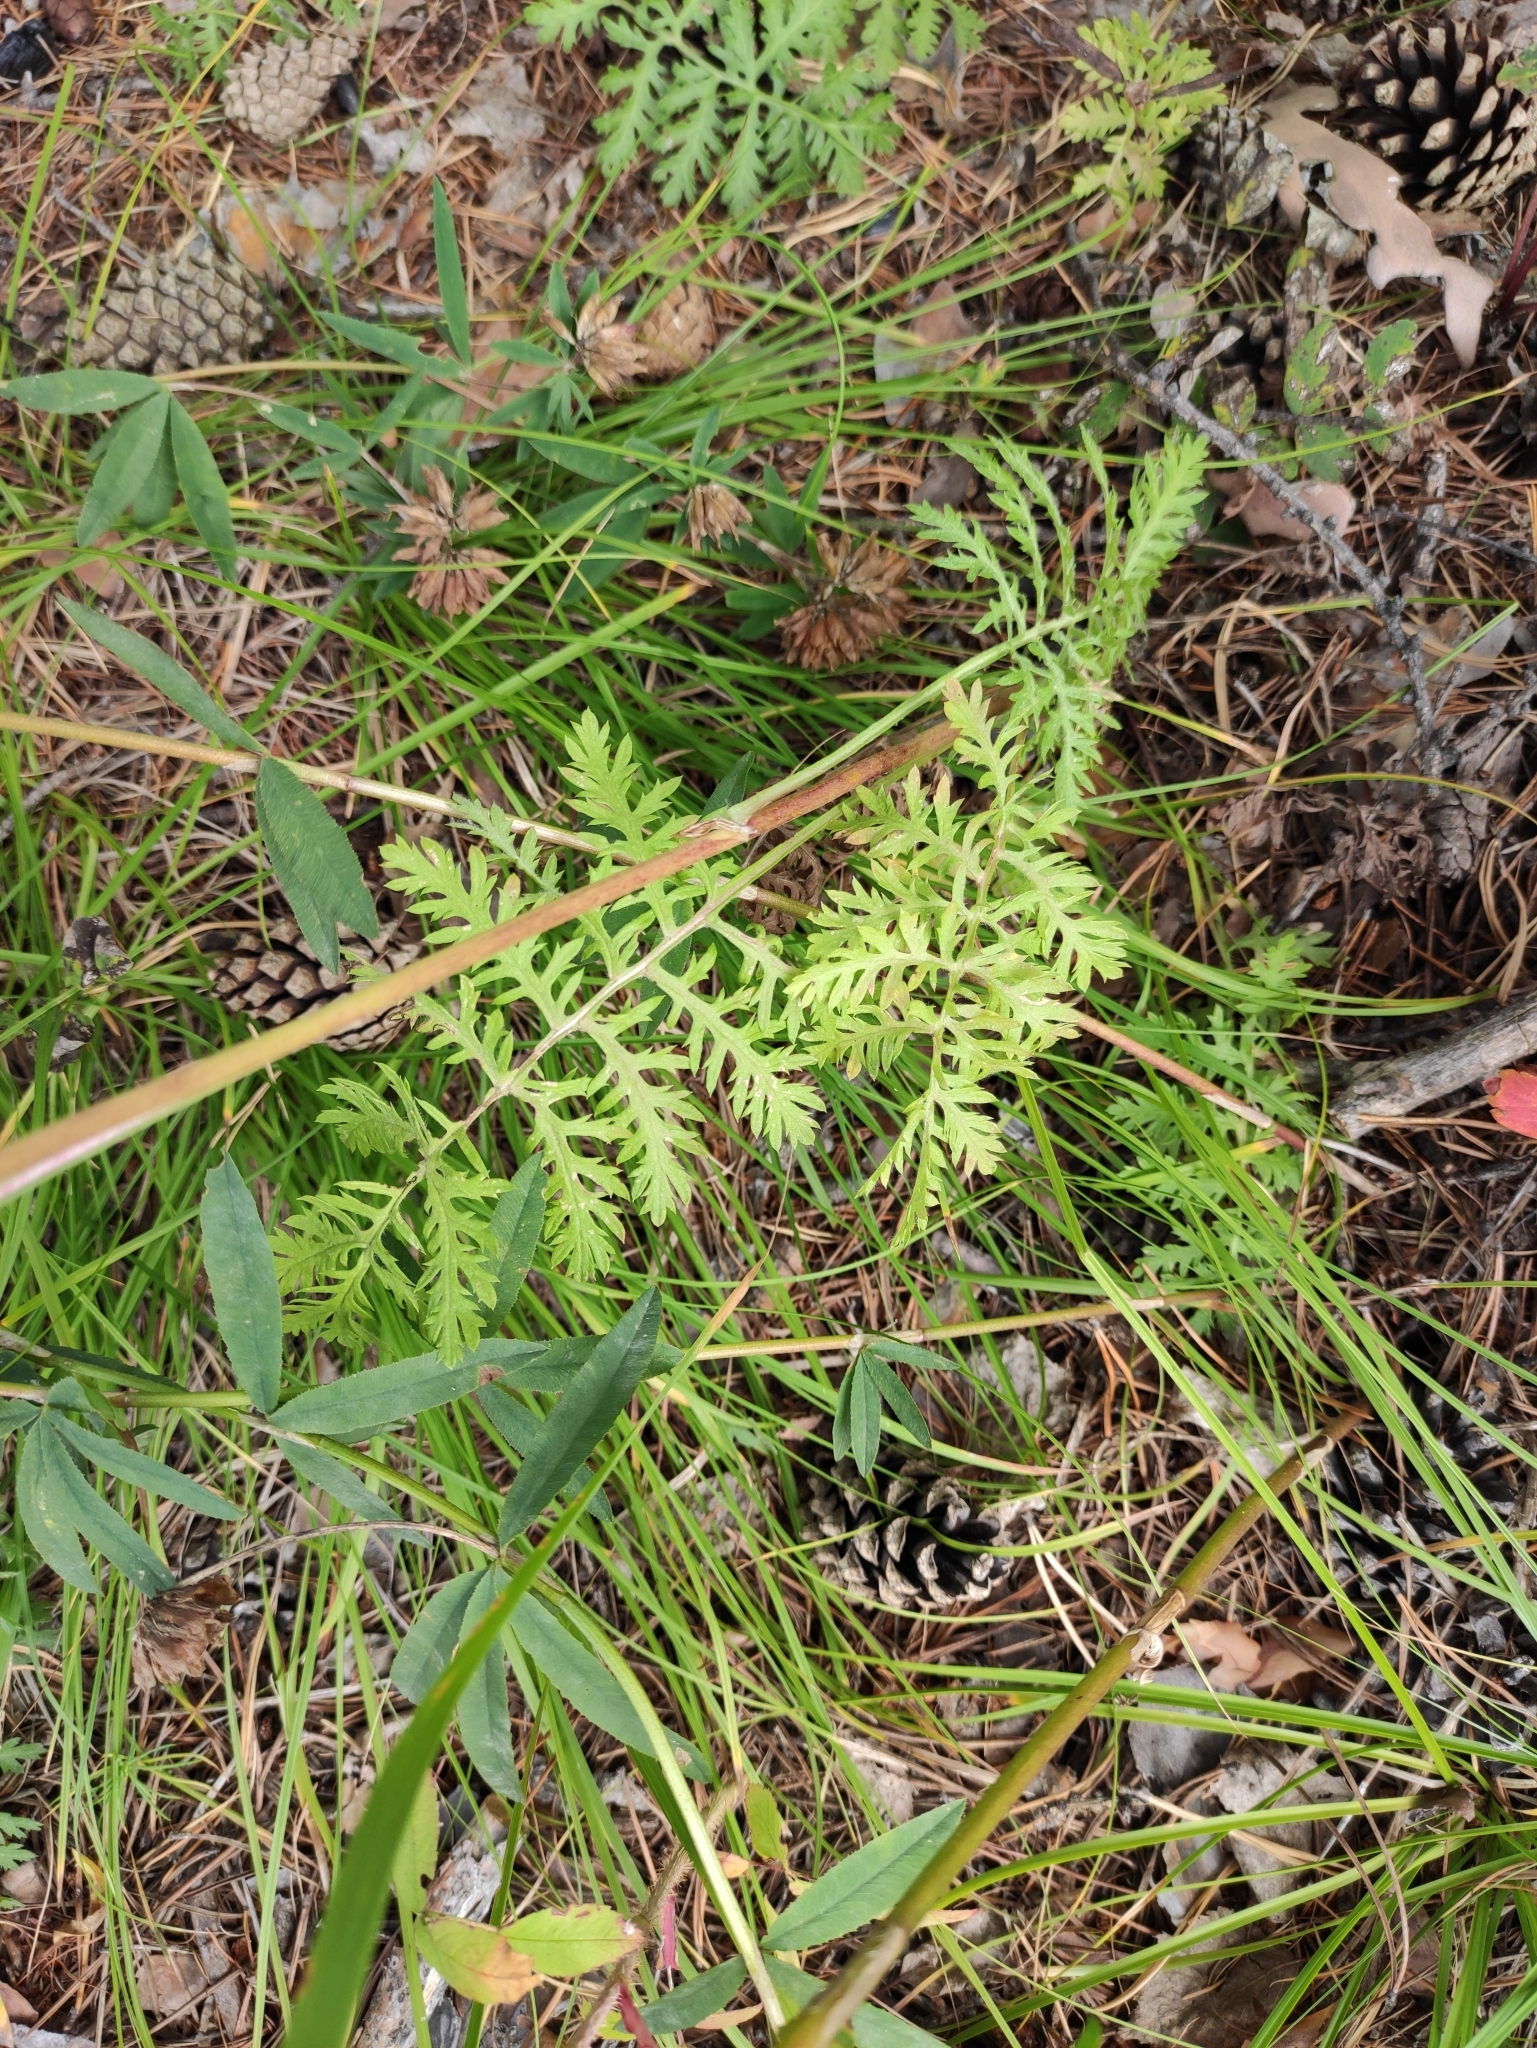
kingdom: Plantae
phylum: Tracheophyta
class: Magnoliopsida
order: Asterales
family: Asteraceae
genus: Artemisia
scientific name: Artemisia tanacetifolia
